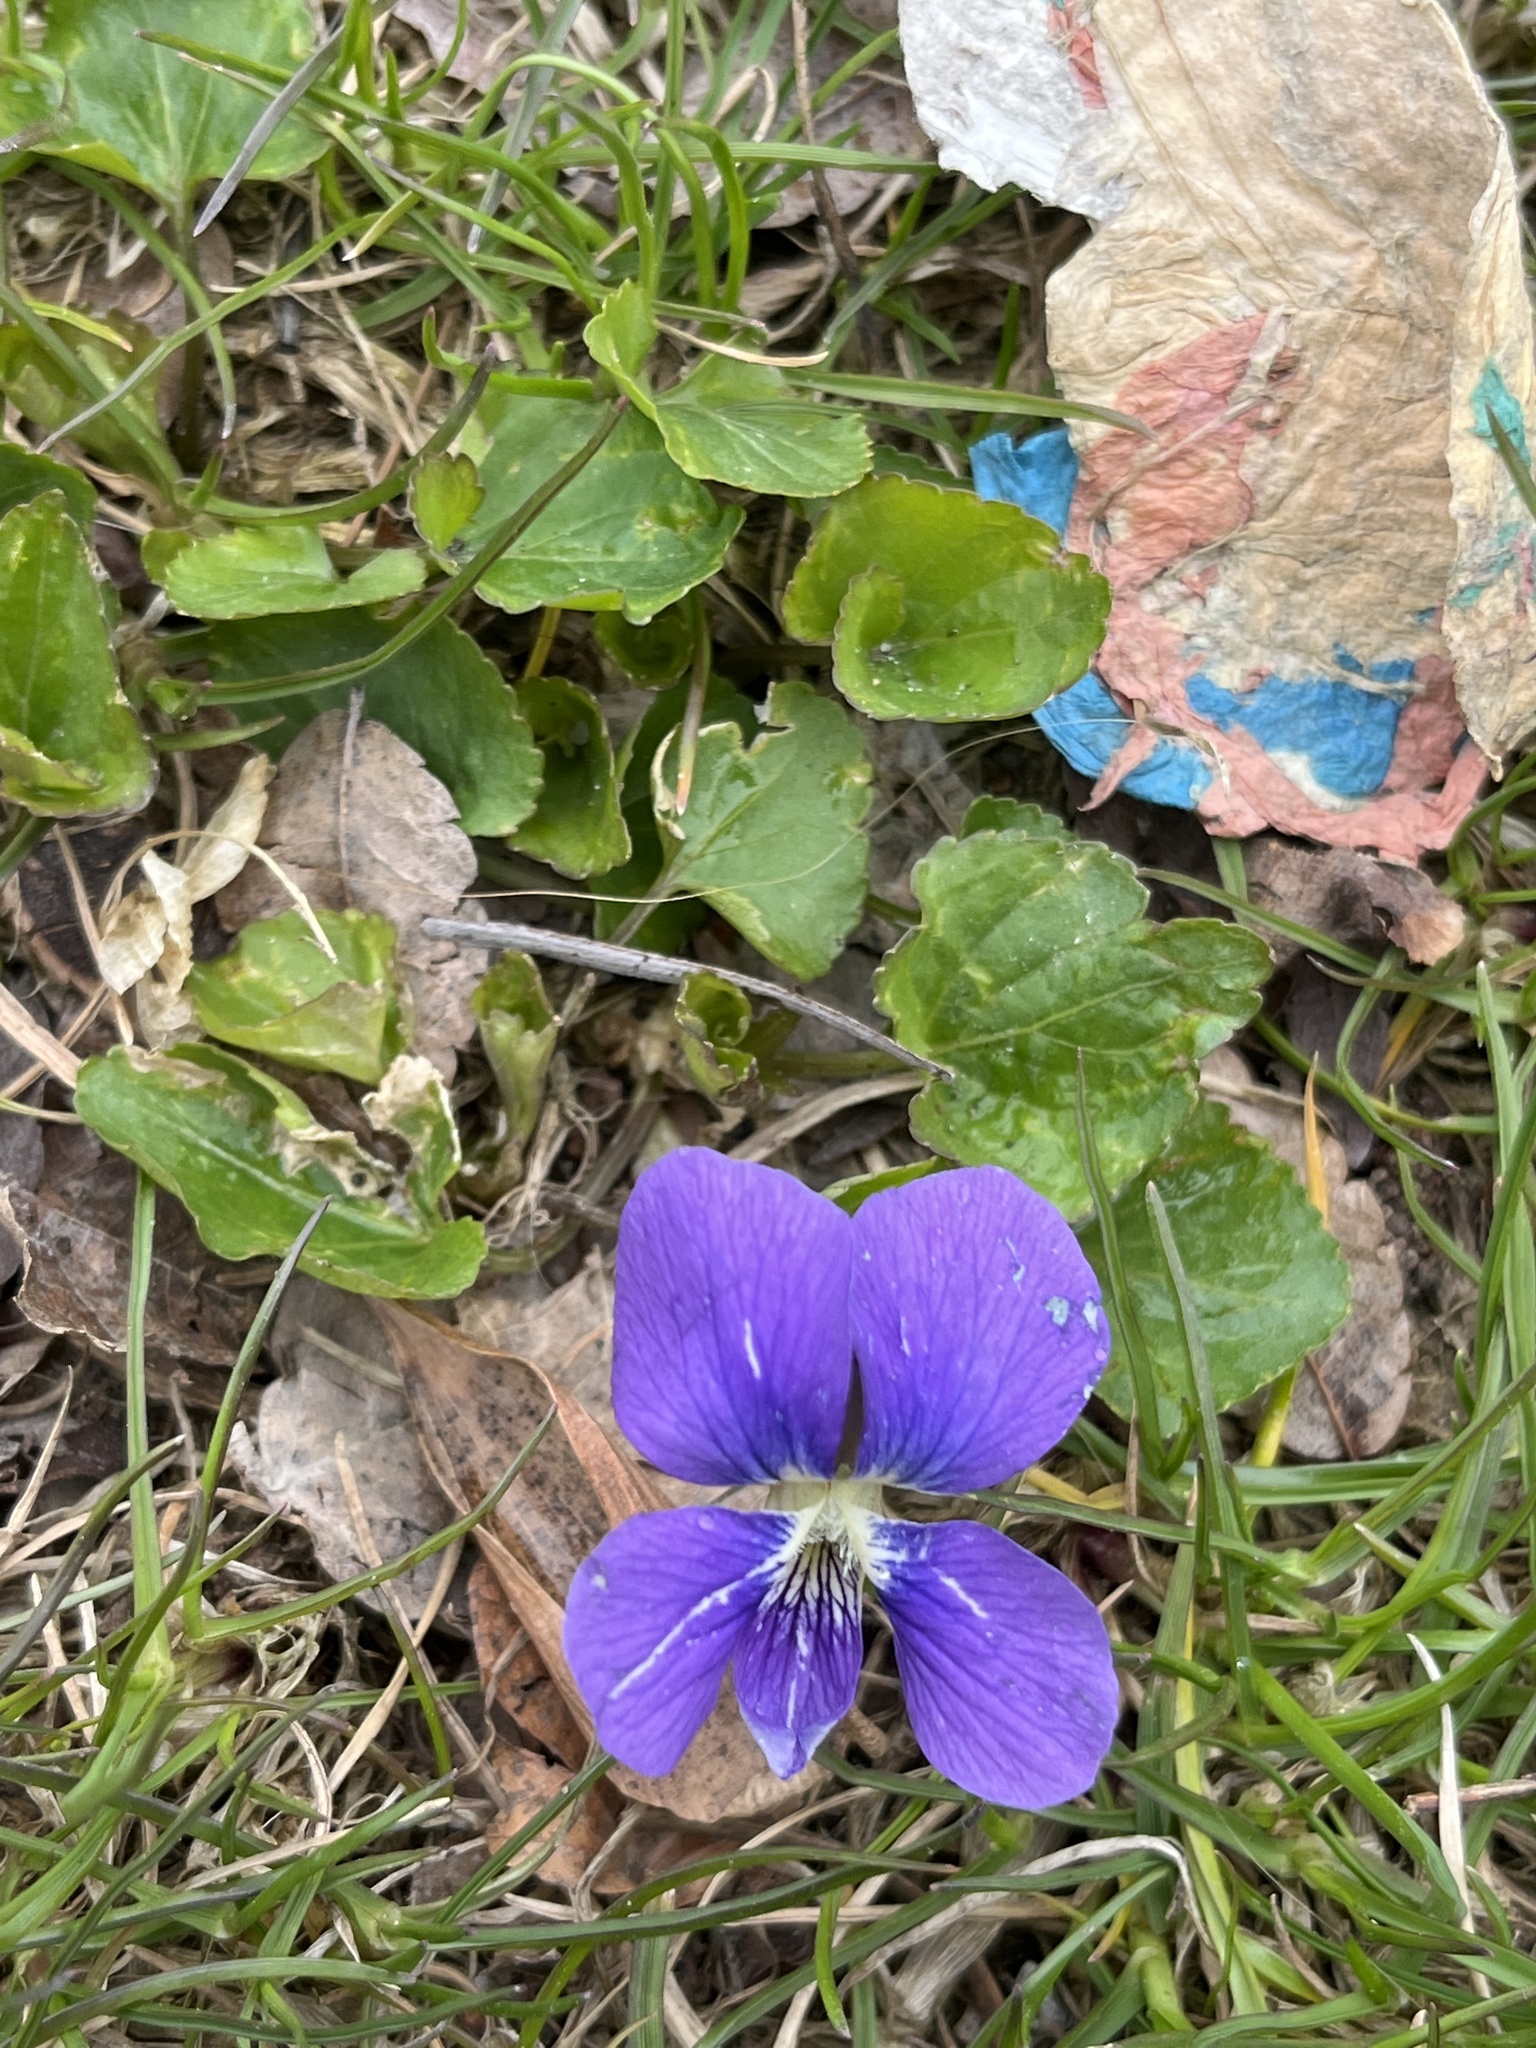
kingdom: Plantae
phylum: Tracheophyta
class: Magnoliopsida
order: Malpighiales
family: Violaceae
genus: Viola
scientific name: Viola sororia
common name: Dooryard violet
